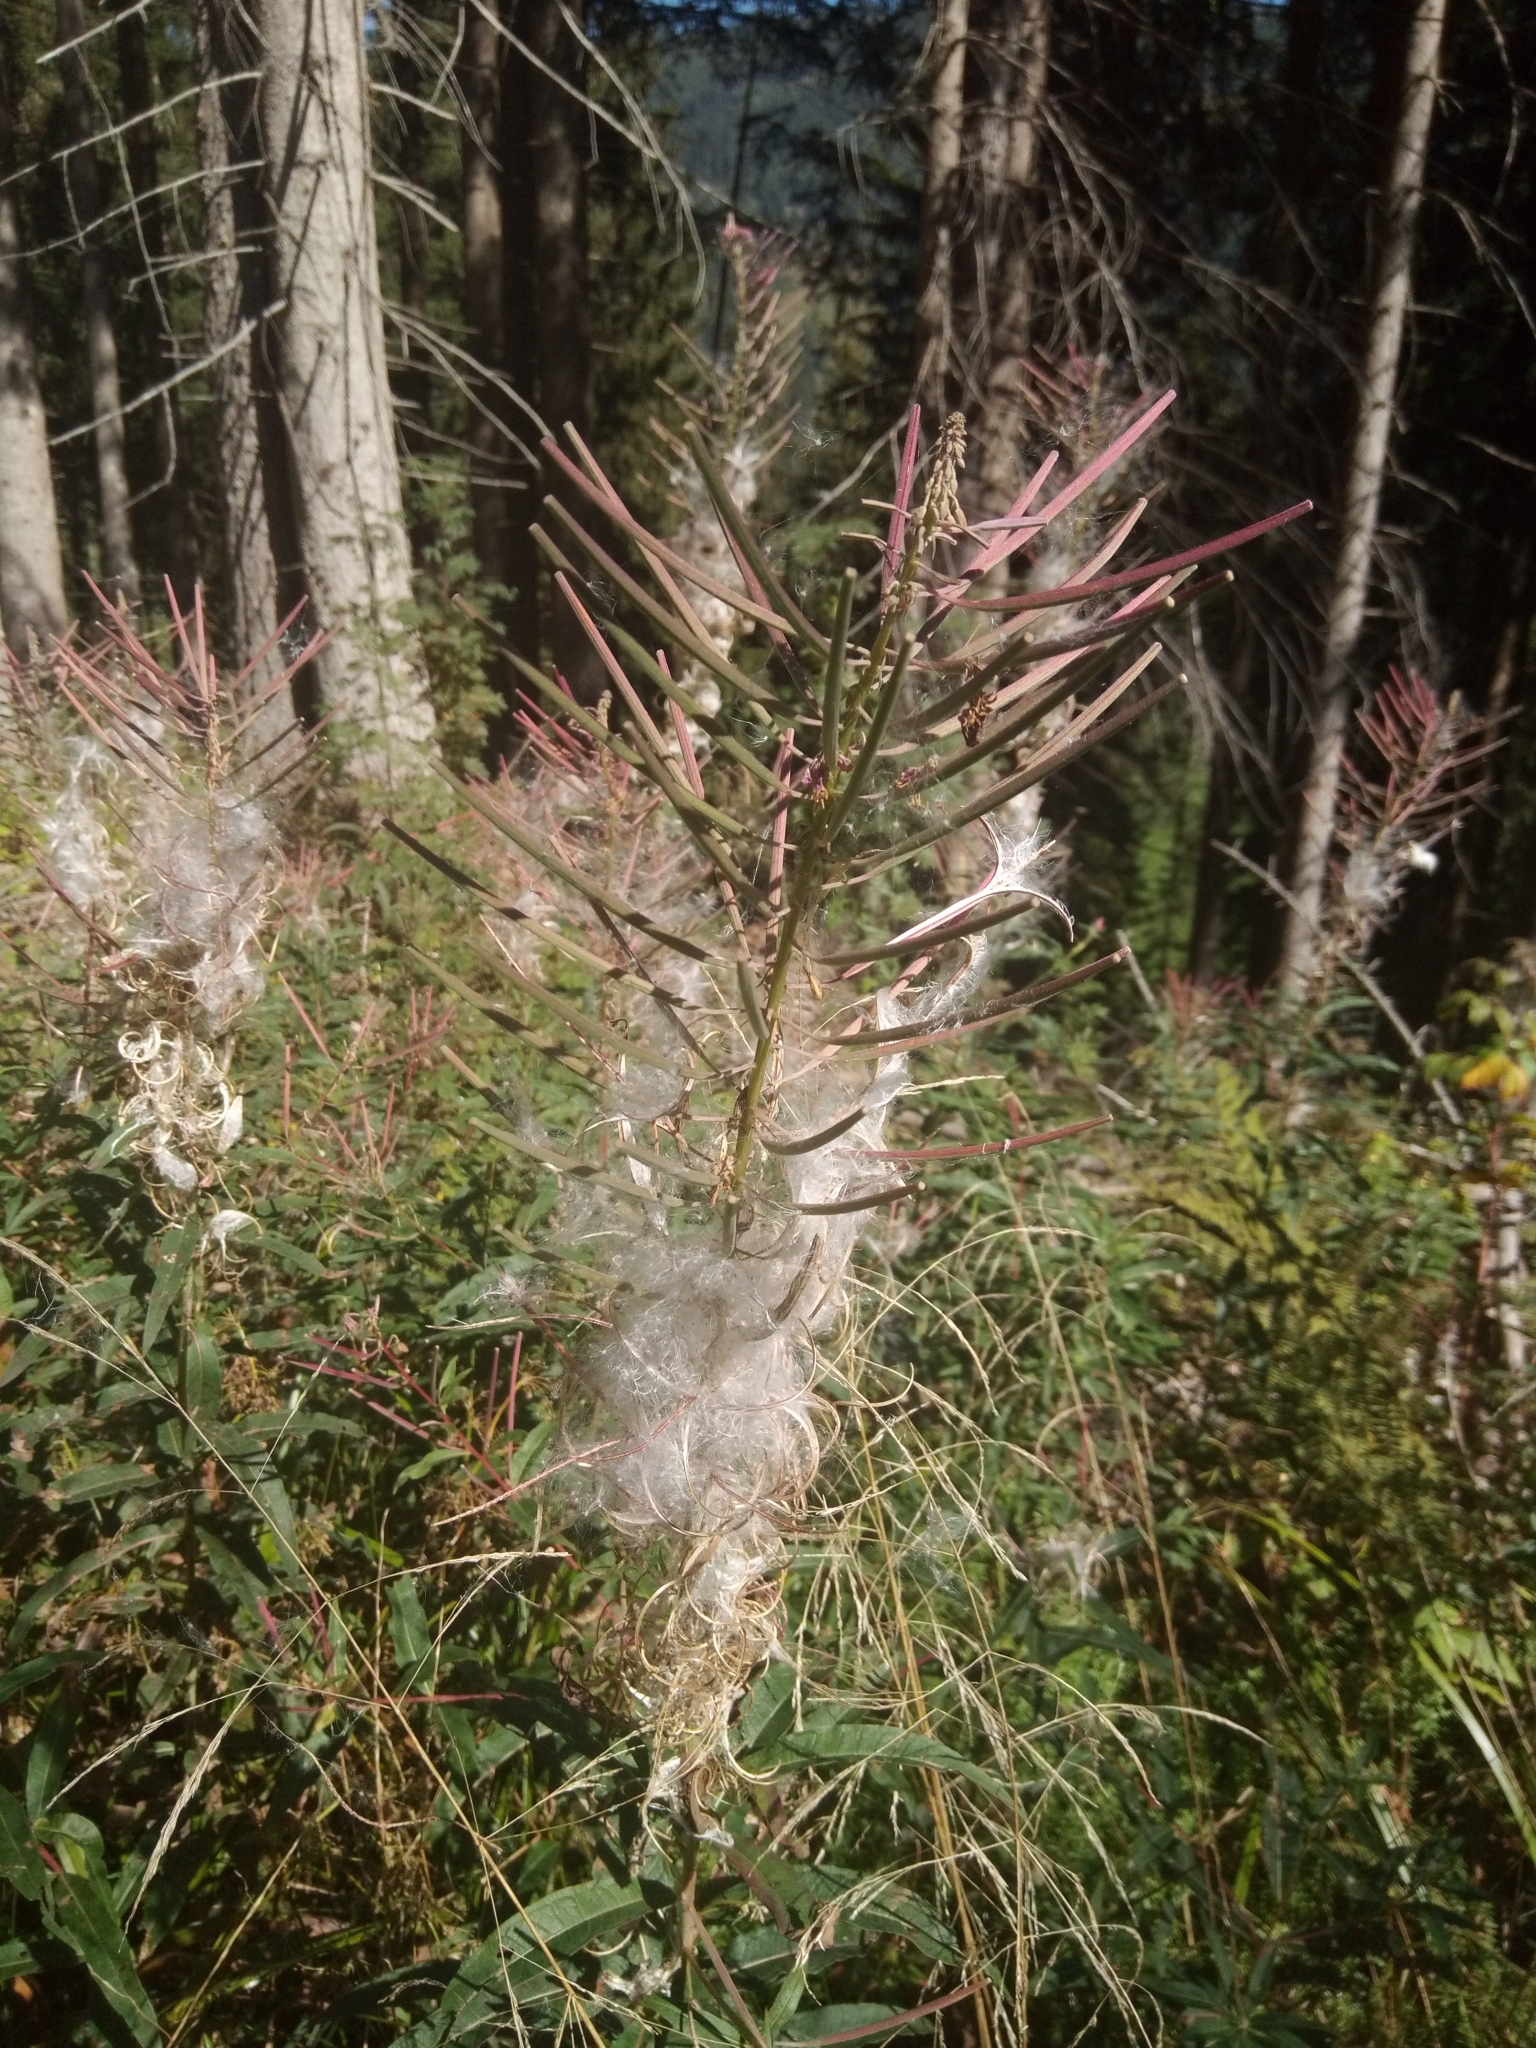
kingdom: Plantae
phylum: Tracheophyta
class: Magnoliopsida
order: Myrtales
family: Onagraceae
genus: Chamaenerion
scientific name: Chamaenerion angustifolium
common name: Fireweed
